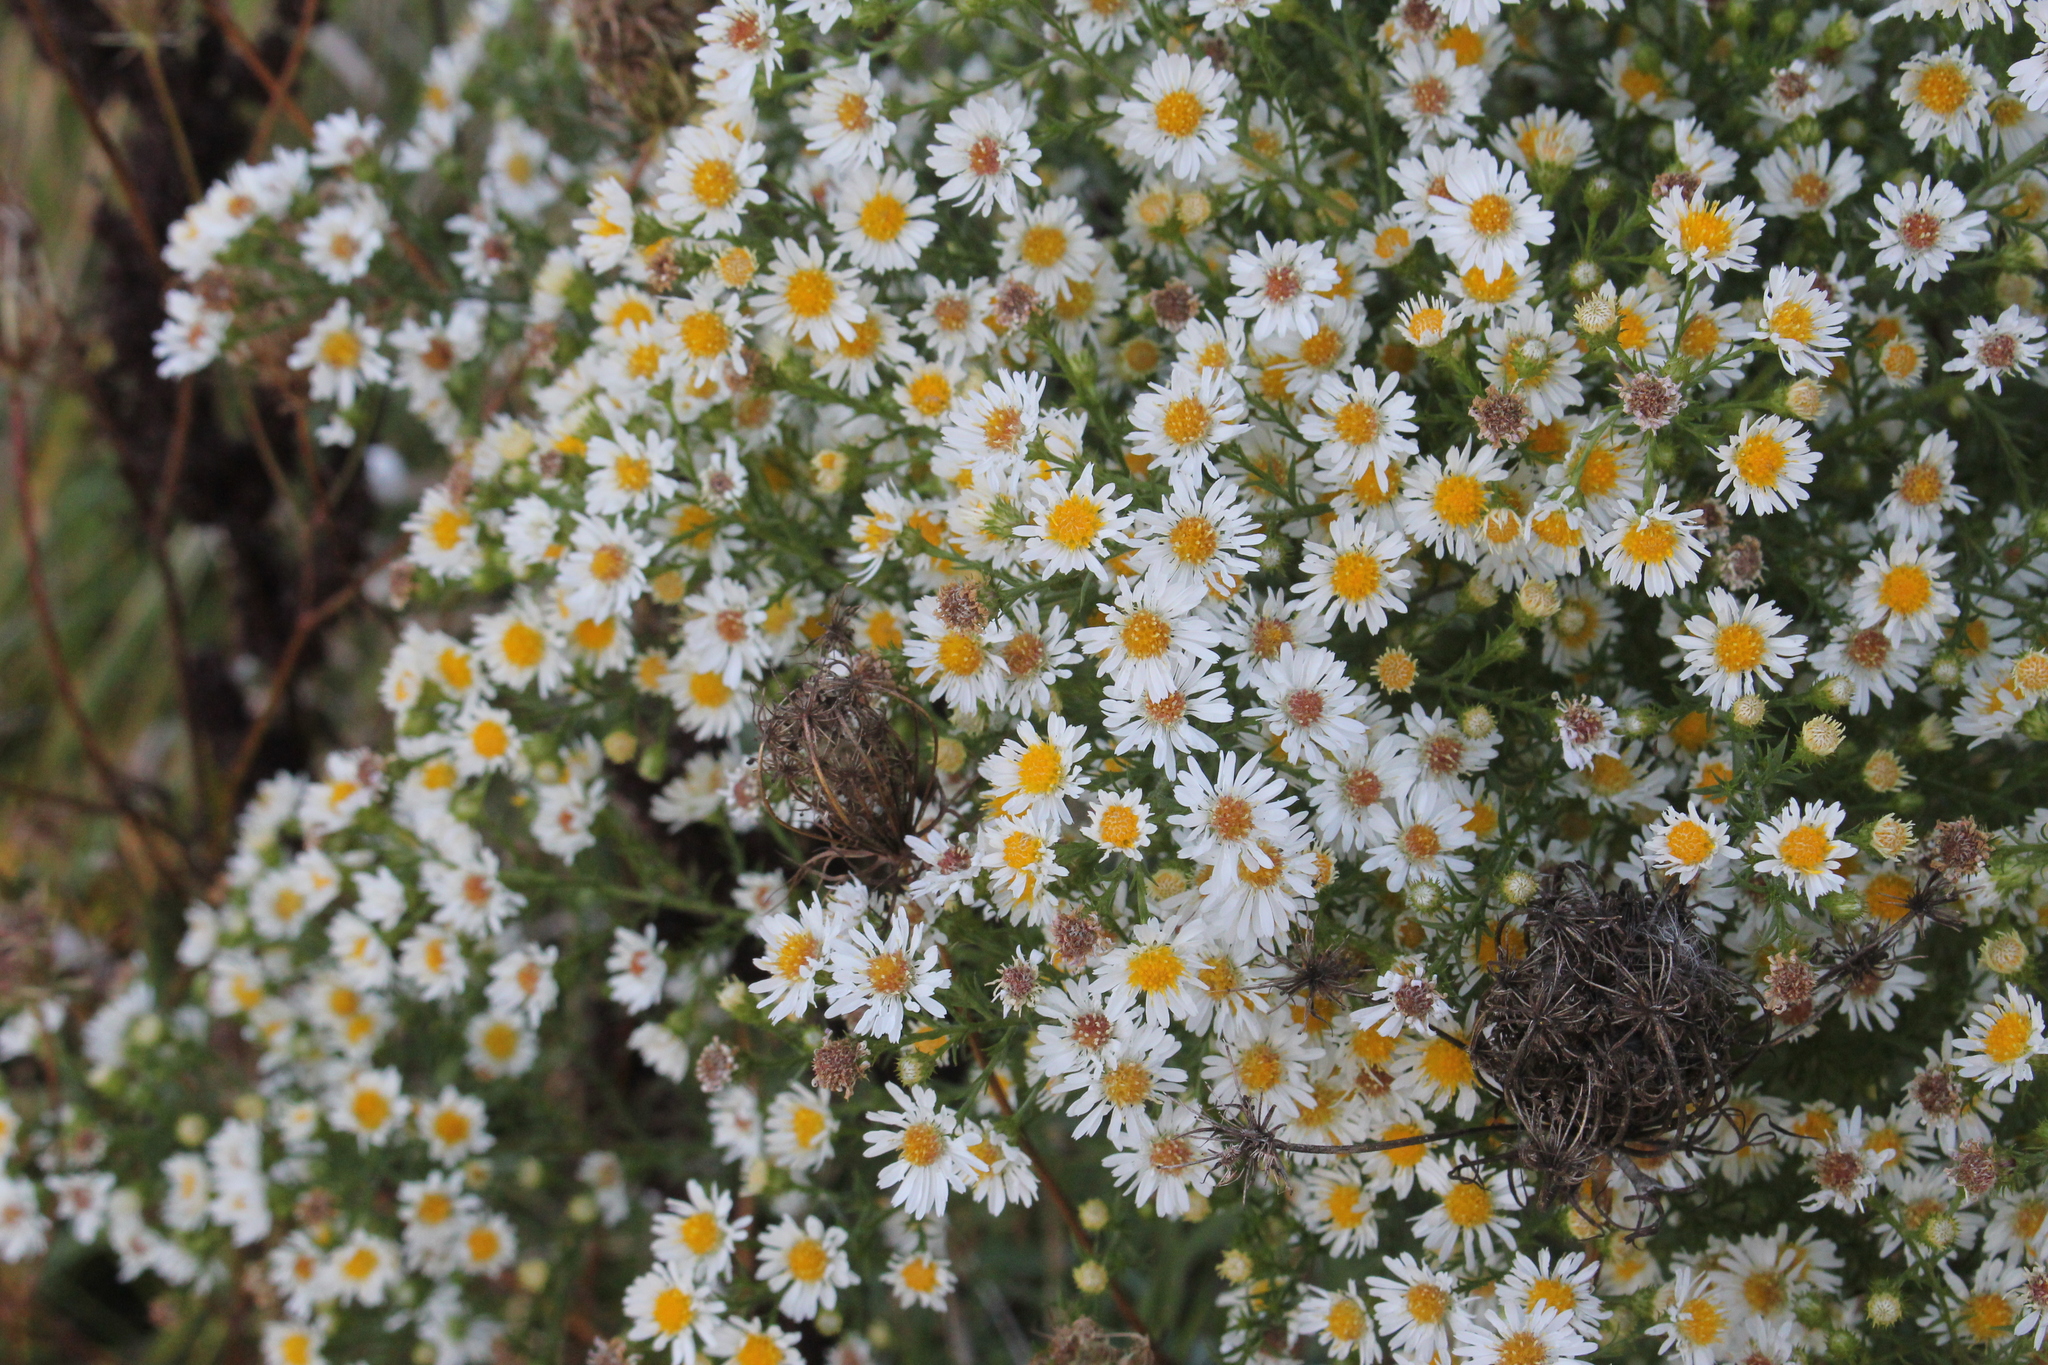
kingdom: Plantae
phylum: Tracheophyta
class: Magnoliopsida
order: Asterales
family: Asteraceae
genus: Symphyotrichum
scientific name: Symphyotrichum pilosum
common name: Awl aster
